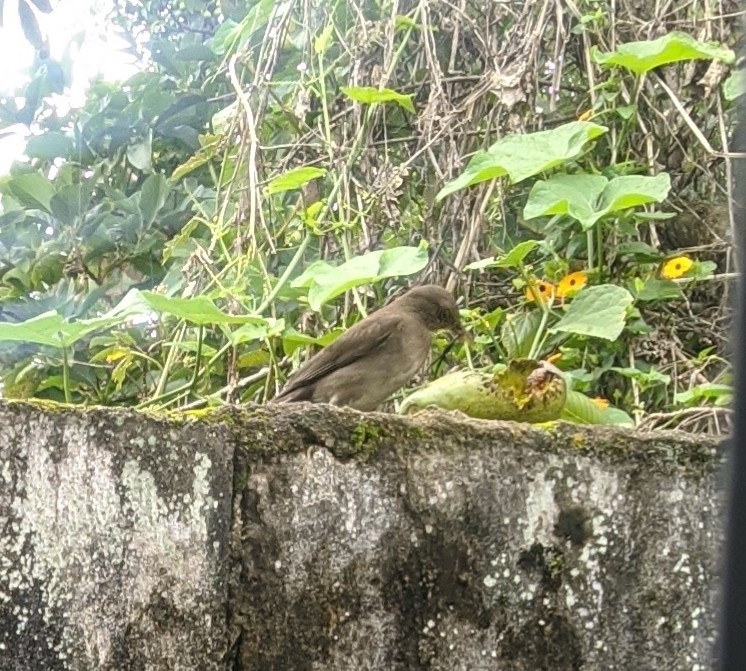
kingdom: Animalia
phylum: Chordata
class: Aves
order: Passeriformes
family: Turdidae
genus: Turdus
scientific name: Turdus ignobilis
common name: Black-billed thrush
